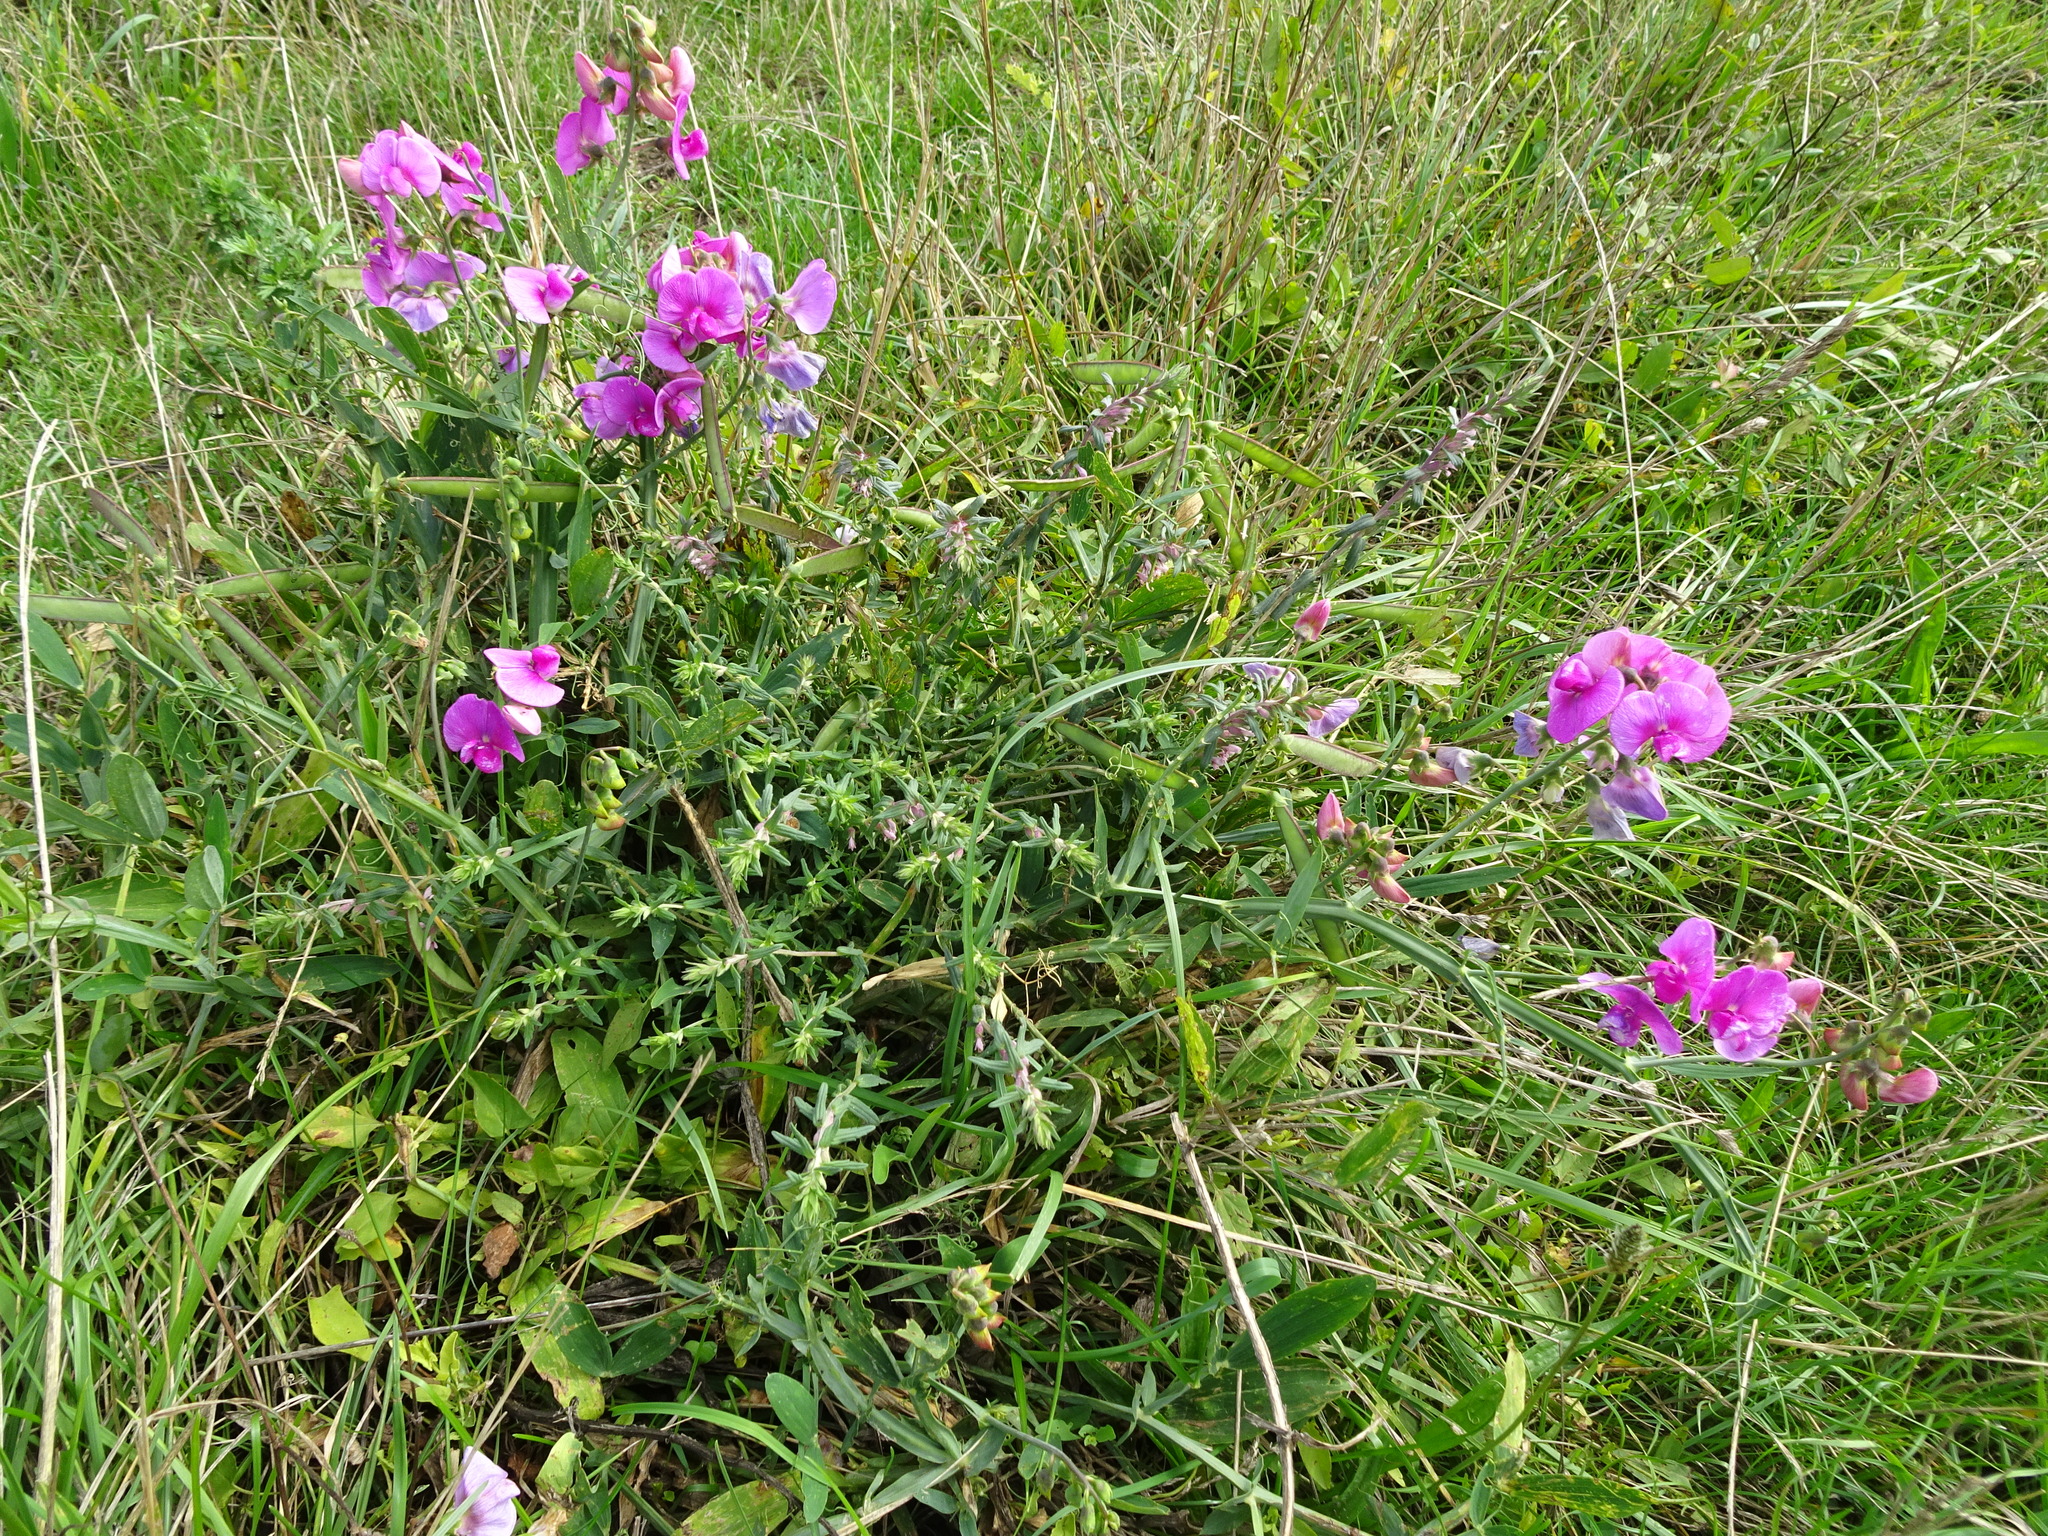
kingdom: Plantae
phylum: Tracheophyta
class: Magnoliopsida
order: Fabales
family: Fabaceae
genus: Lathyrus
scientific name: Lathyrus latifolius
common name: Perennial pea
